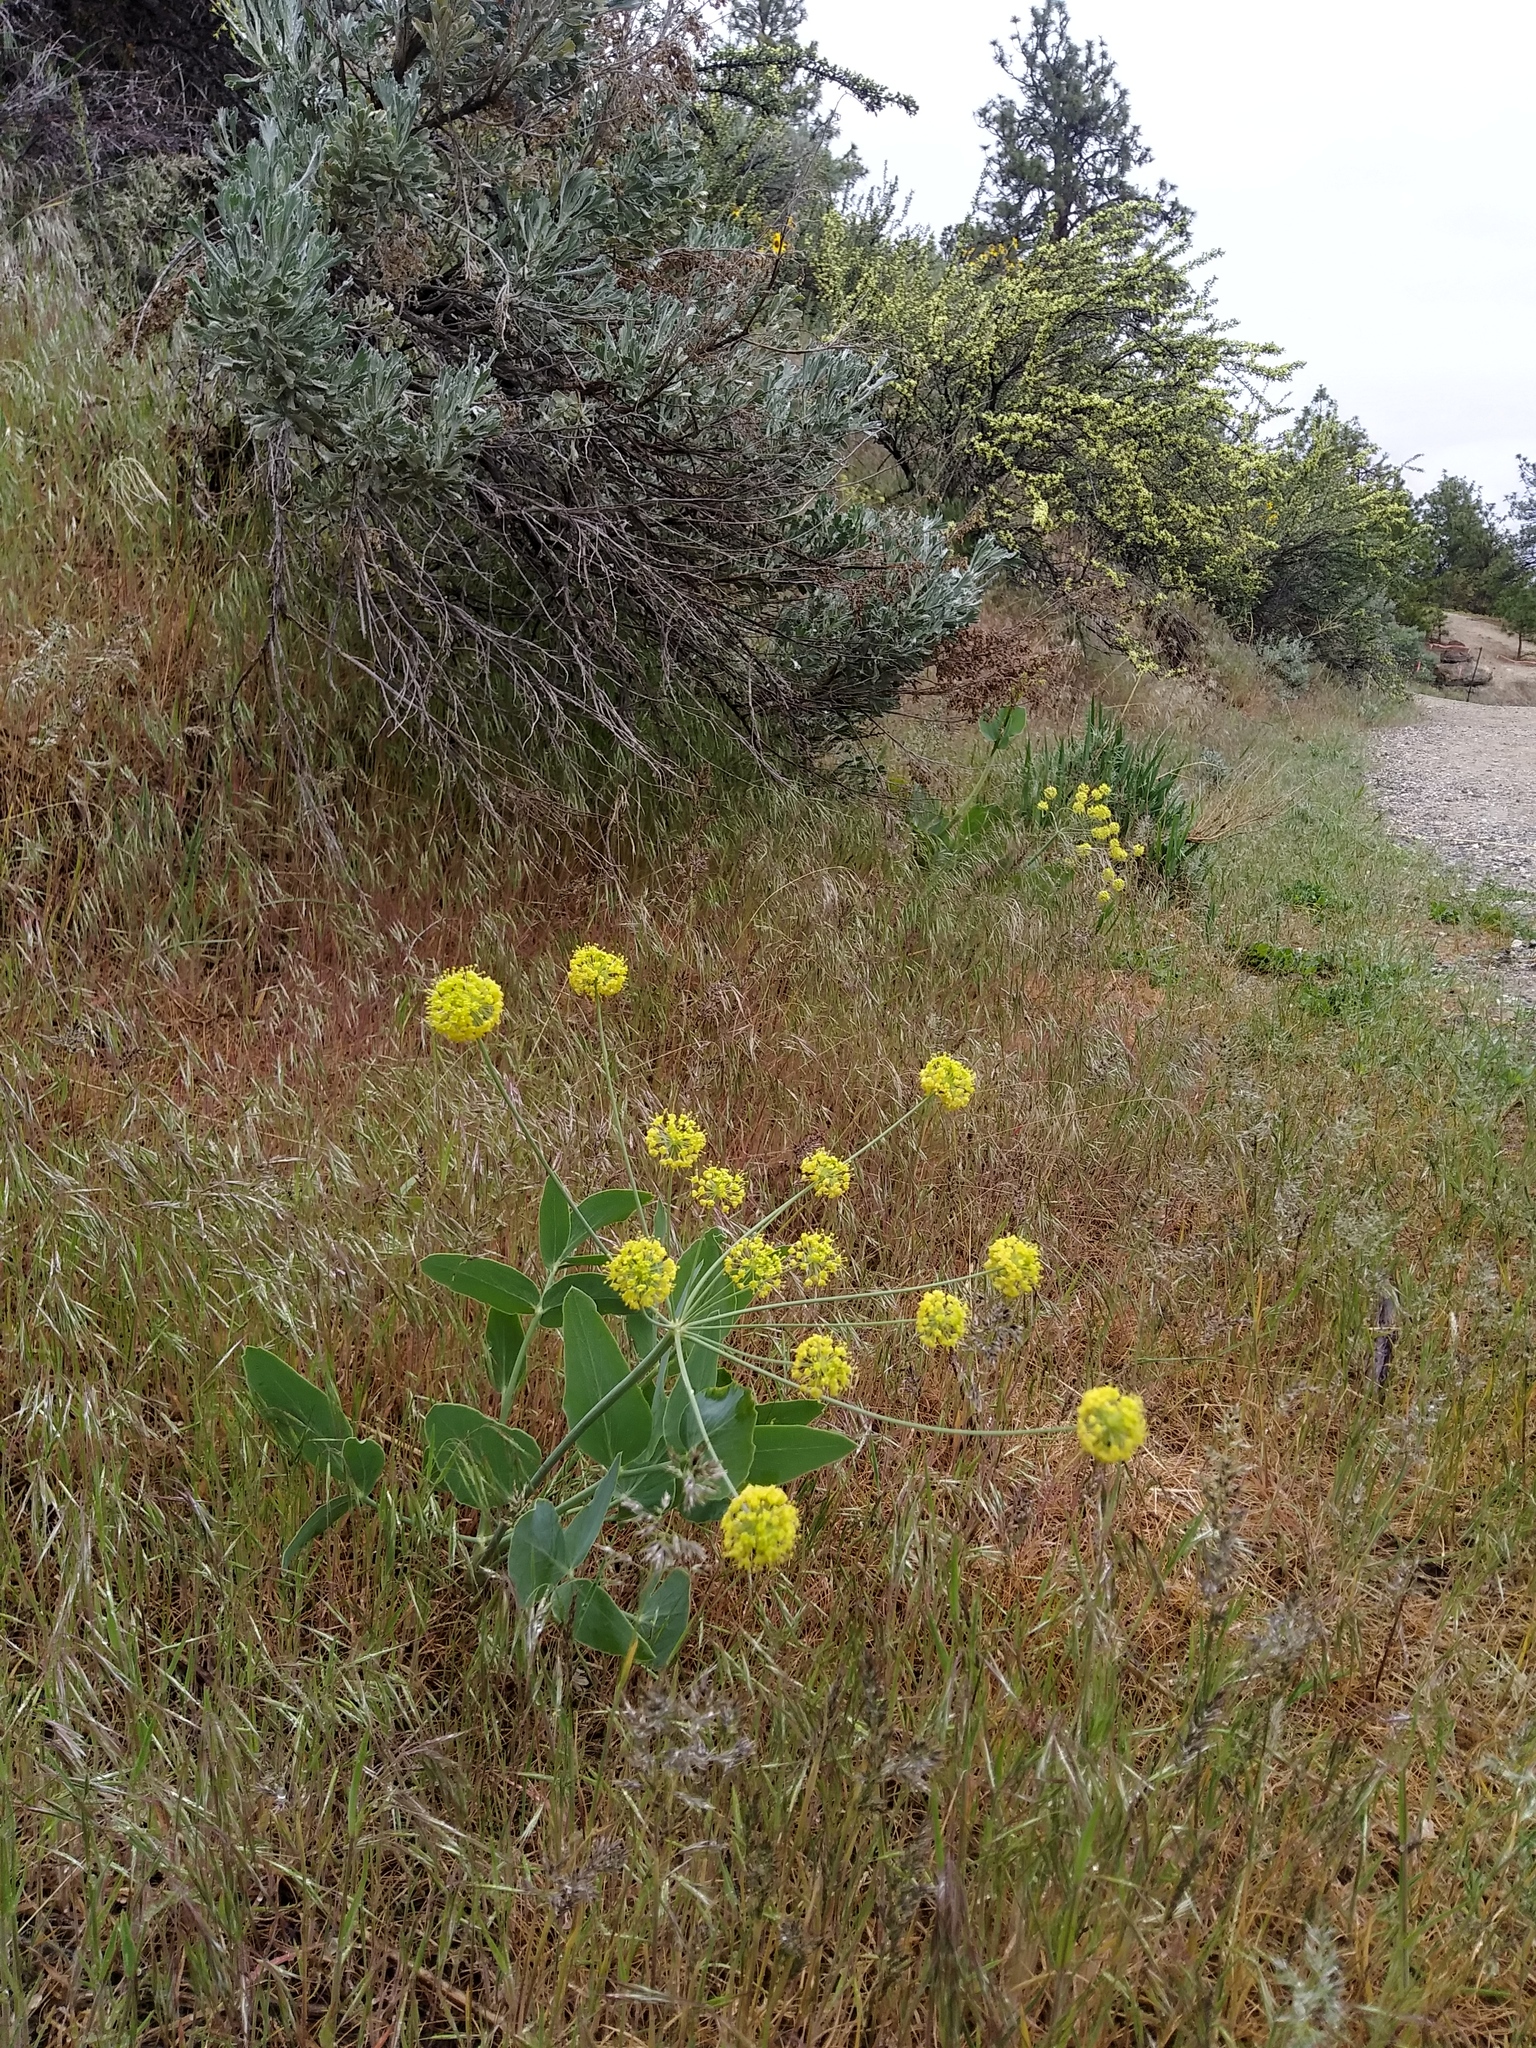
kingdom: Plantae
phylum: Tracheophyta
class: Magnoliopsida
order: Apiales
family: Apiaceae
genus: Lomatium
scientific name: Lomatium nudicaule
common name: Pestle lomatium
